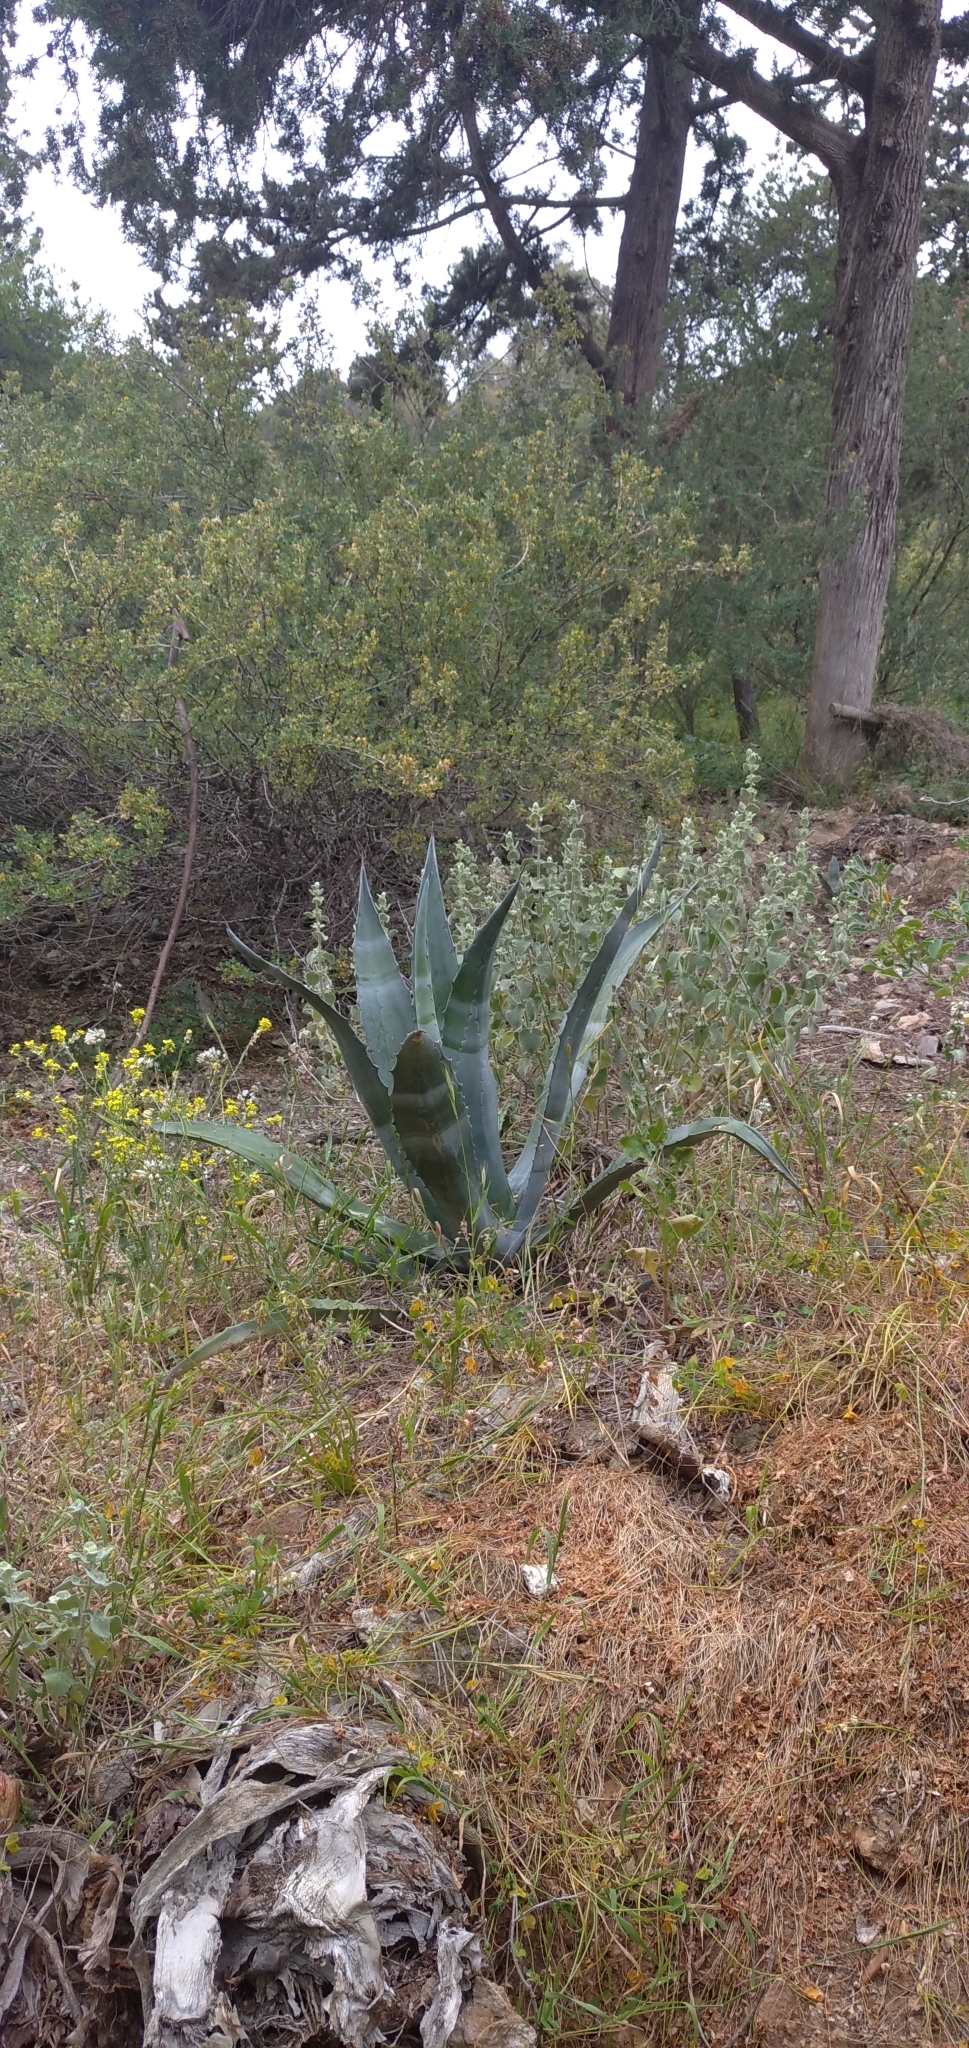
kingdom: Plantae
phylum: Tracheophyta
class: Liliopsida
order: Asparagales
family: Asparagaceae
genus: Agave
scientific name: Agave americana
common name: Centuryplant
